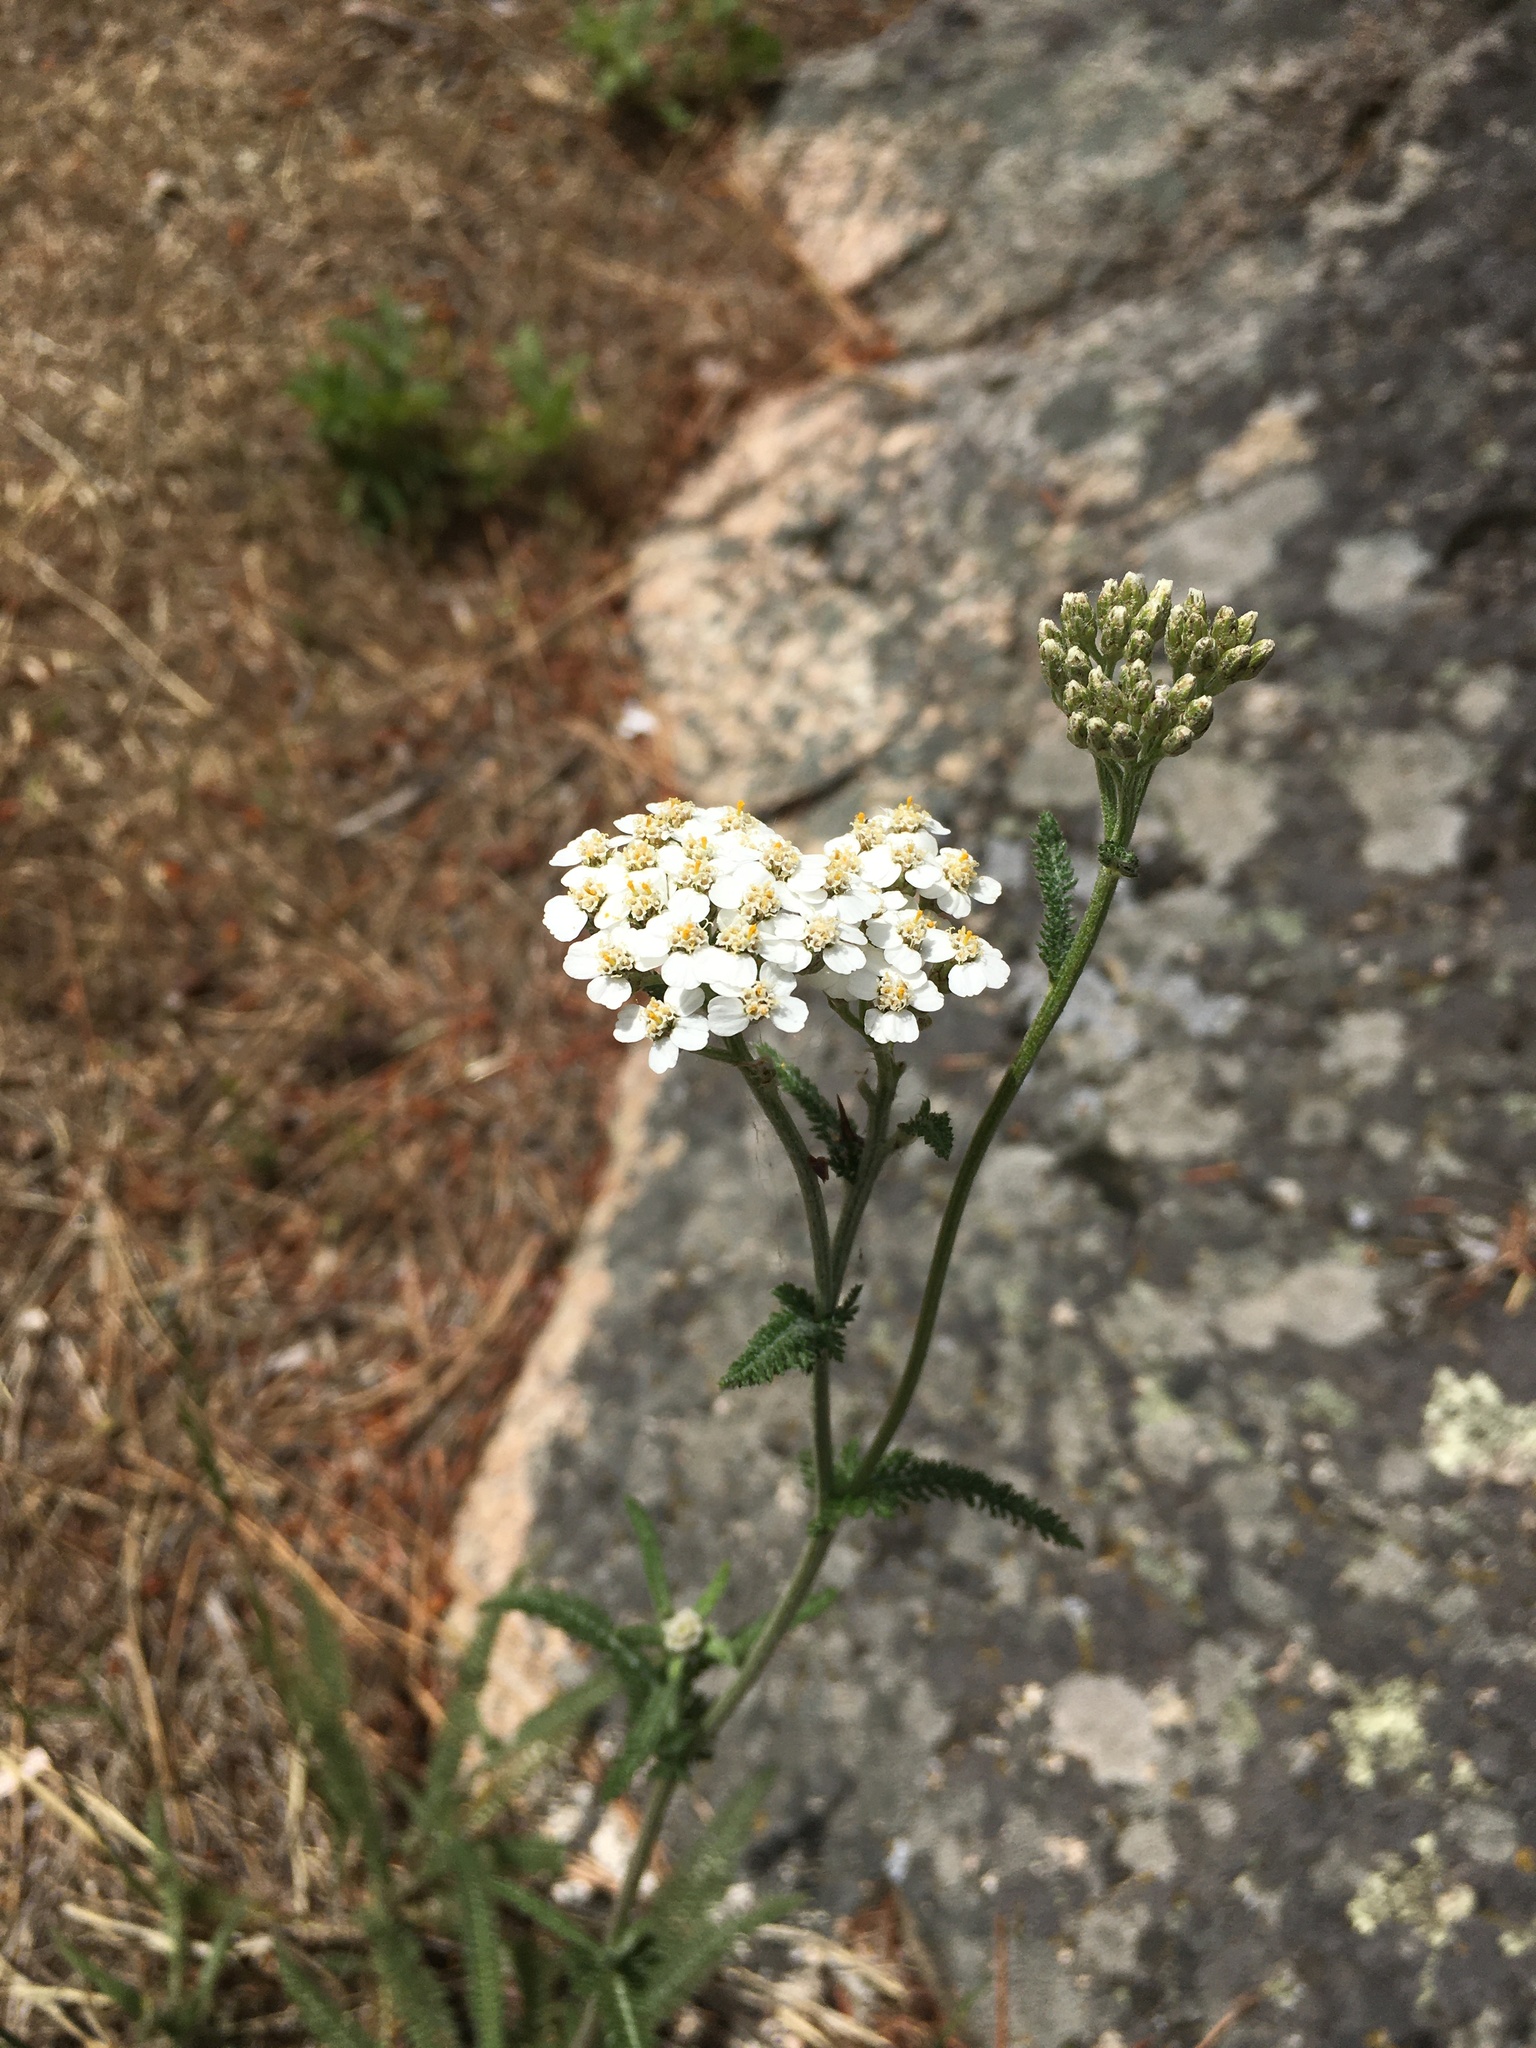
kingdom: Plantae
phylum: Tracheophyta
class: Magnoliopsida
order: Asterales
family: Asteraceae
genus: Achillea
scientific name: Achillea millefolium
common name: Yarrow
